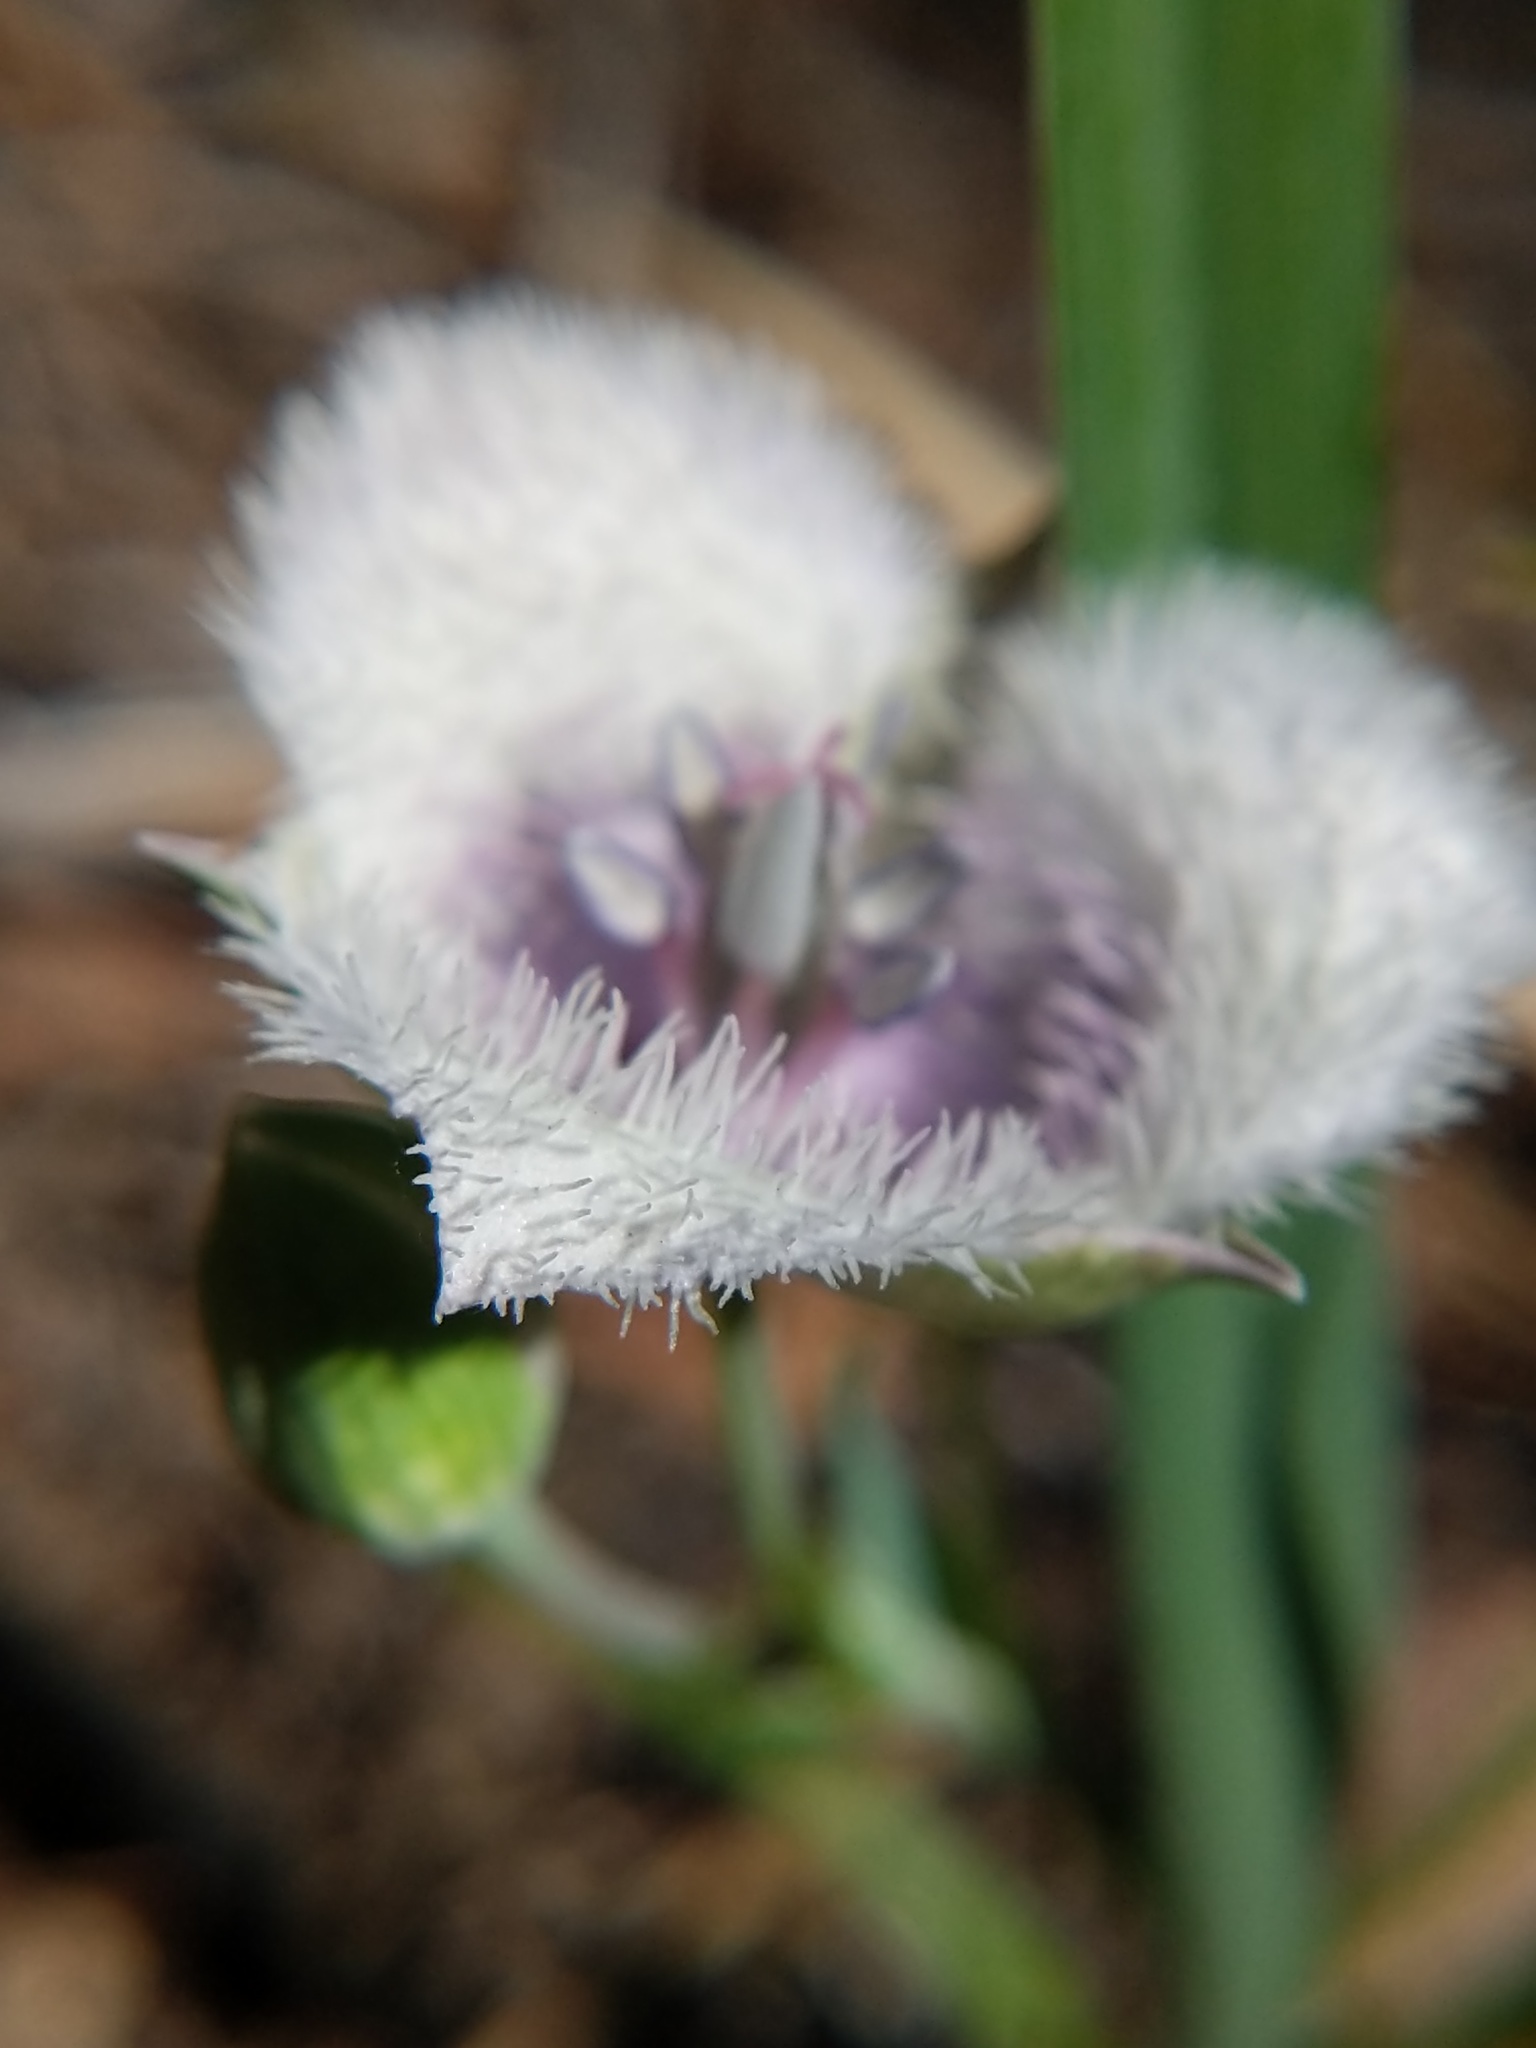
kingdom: Plantae
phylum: Tracheophyta
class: Liliopsida
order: Liliales
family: Liliaceae
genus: Calochortus
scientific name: Calochortus coeruleus
